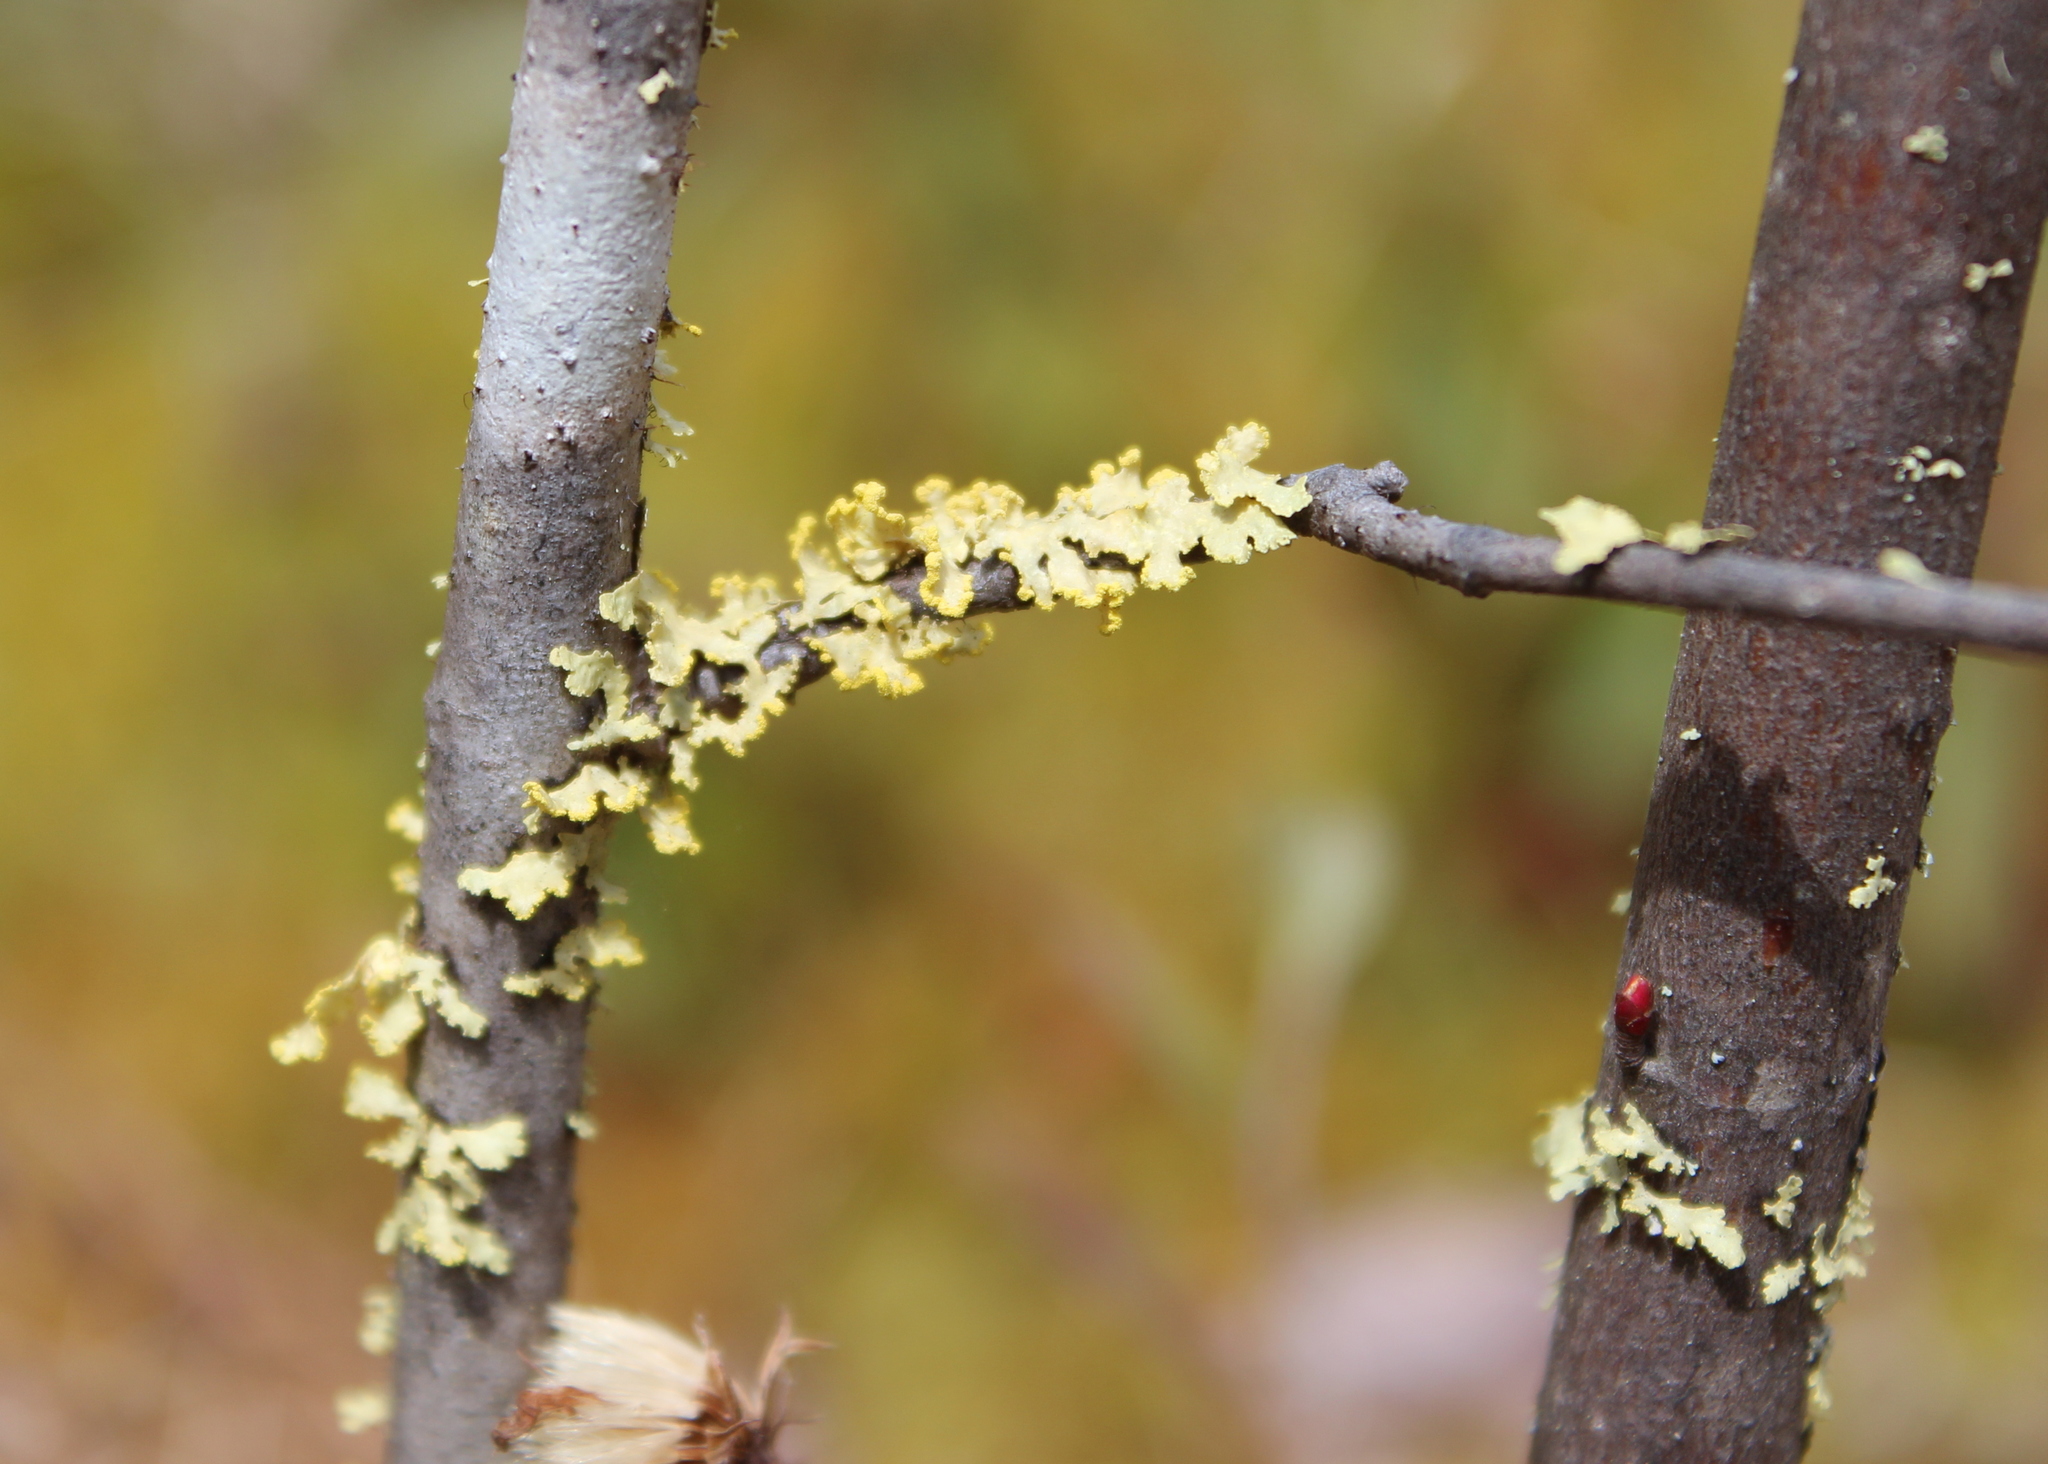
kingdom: Fungi
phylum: Ascomycota
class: Lecanoromycetes
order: Lecanorales
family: Parmeliaceae
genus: Vulpicida
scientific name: Vulpicida pinastri
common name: Powdered sunshine lichen
